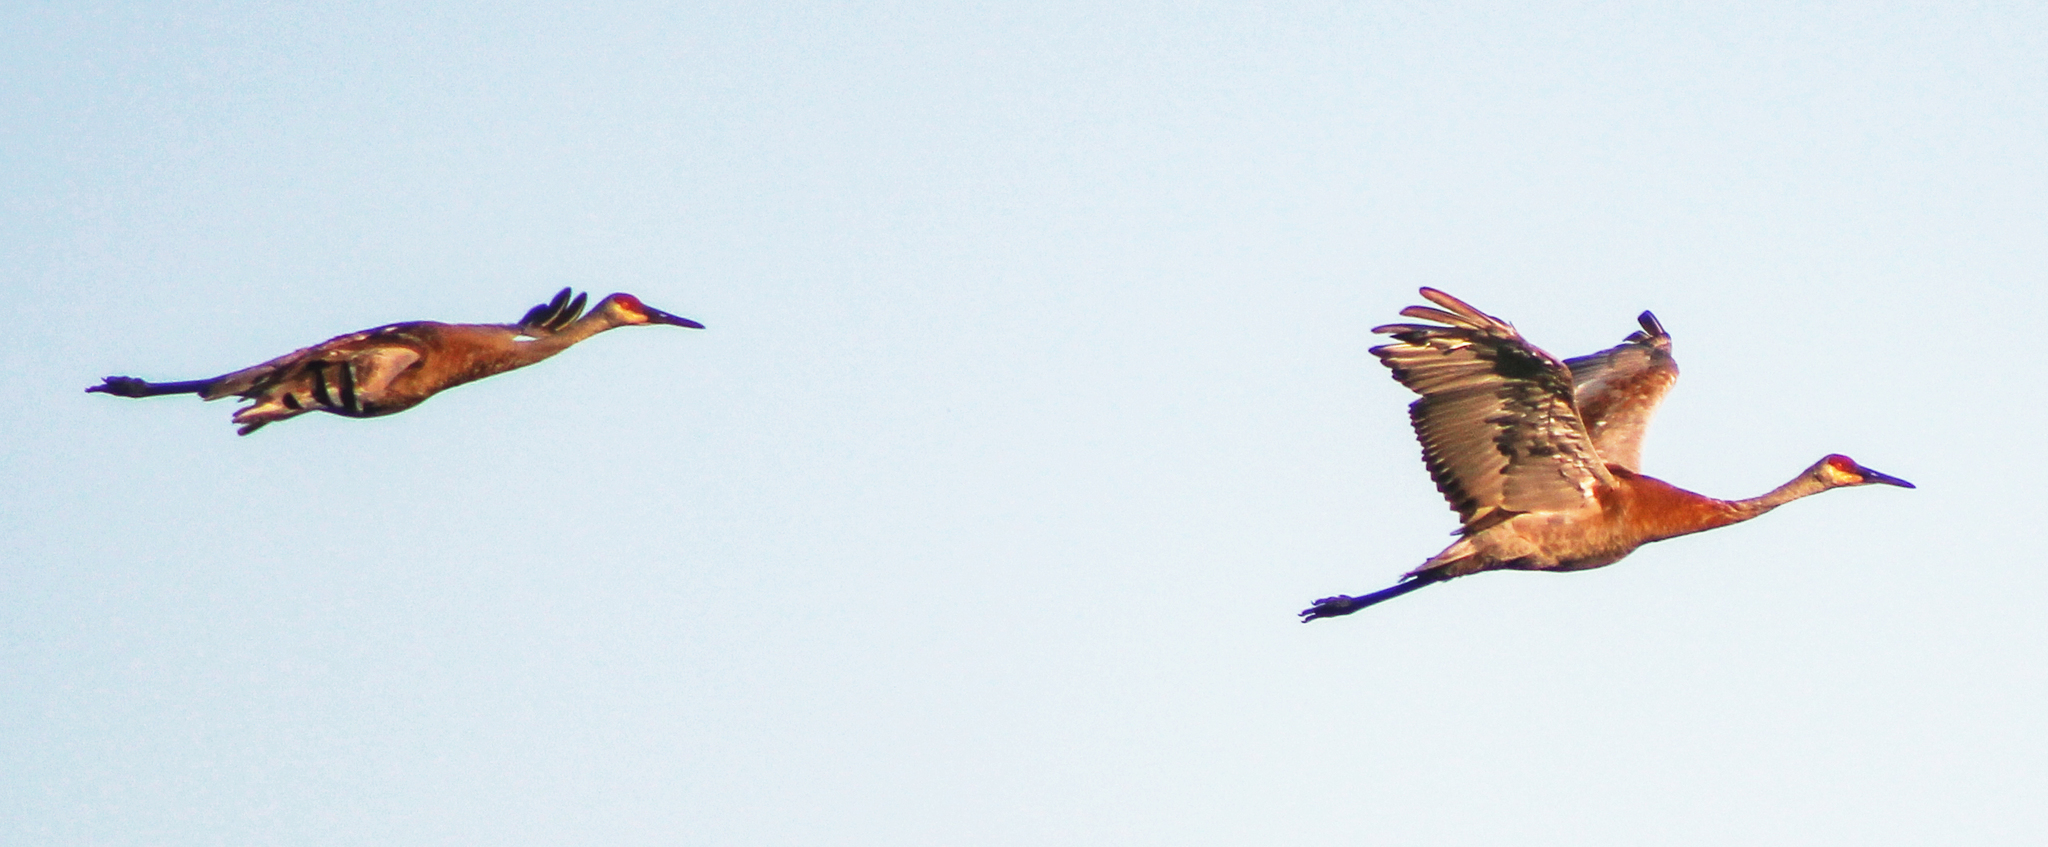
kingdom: Animalia
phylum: Chordata
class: Aves
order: Gruiformes
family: Gruidae
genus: Grus
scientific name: Grus canadensis
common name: Sandhill crane
